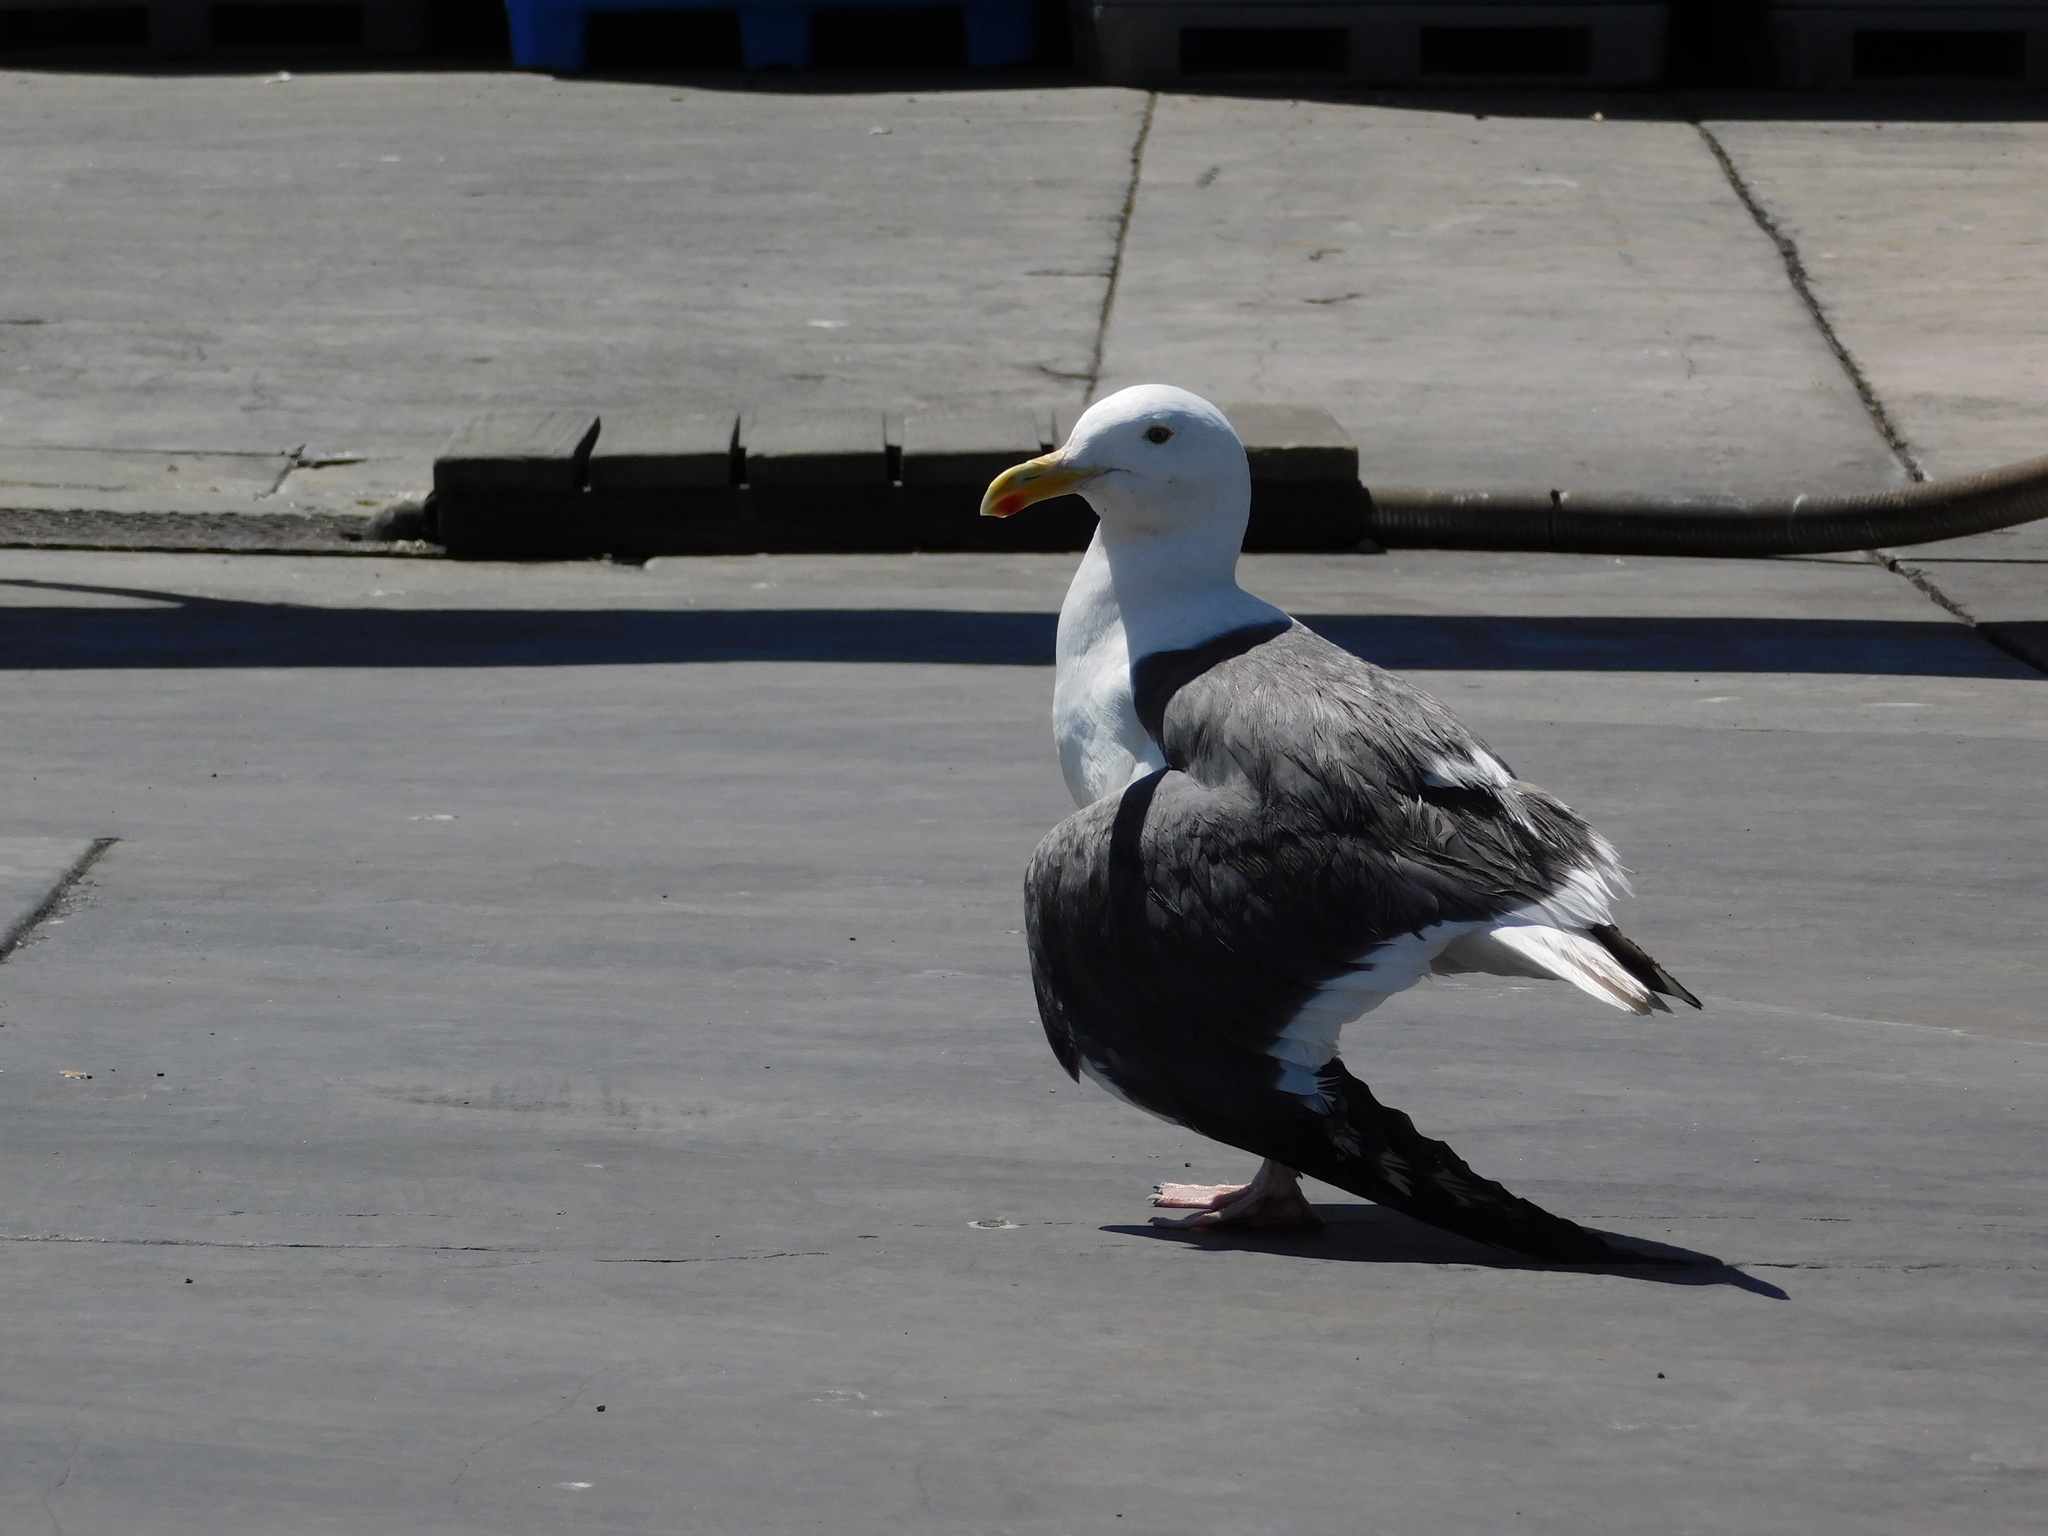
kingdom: Animalia
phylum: Chordata
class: Aves
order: Charadriiformes
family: Laridae
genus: Larus
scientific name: Larus occidentalis
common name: Western gull
